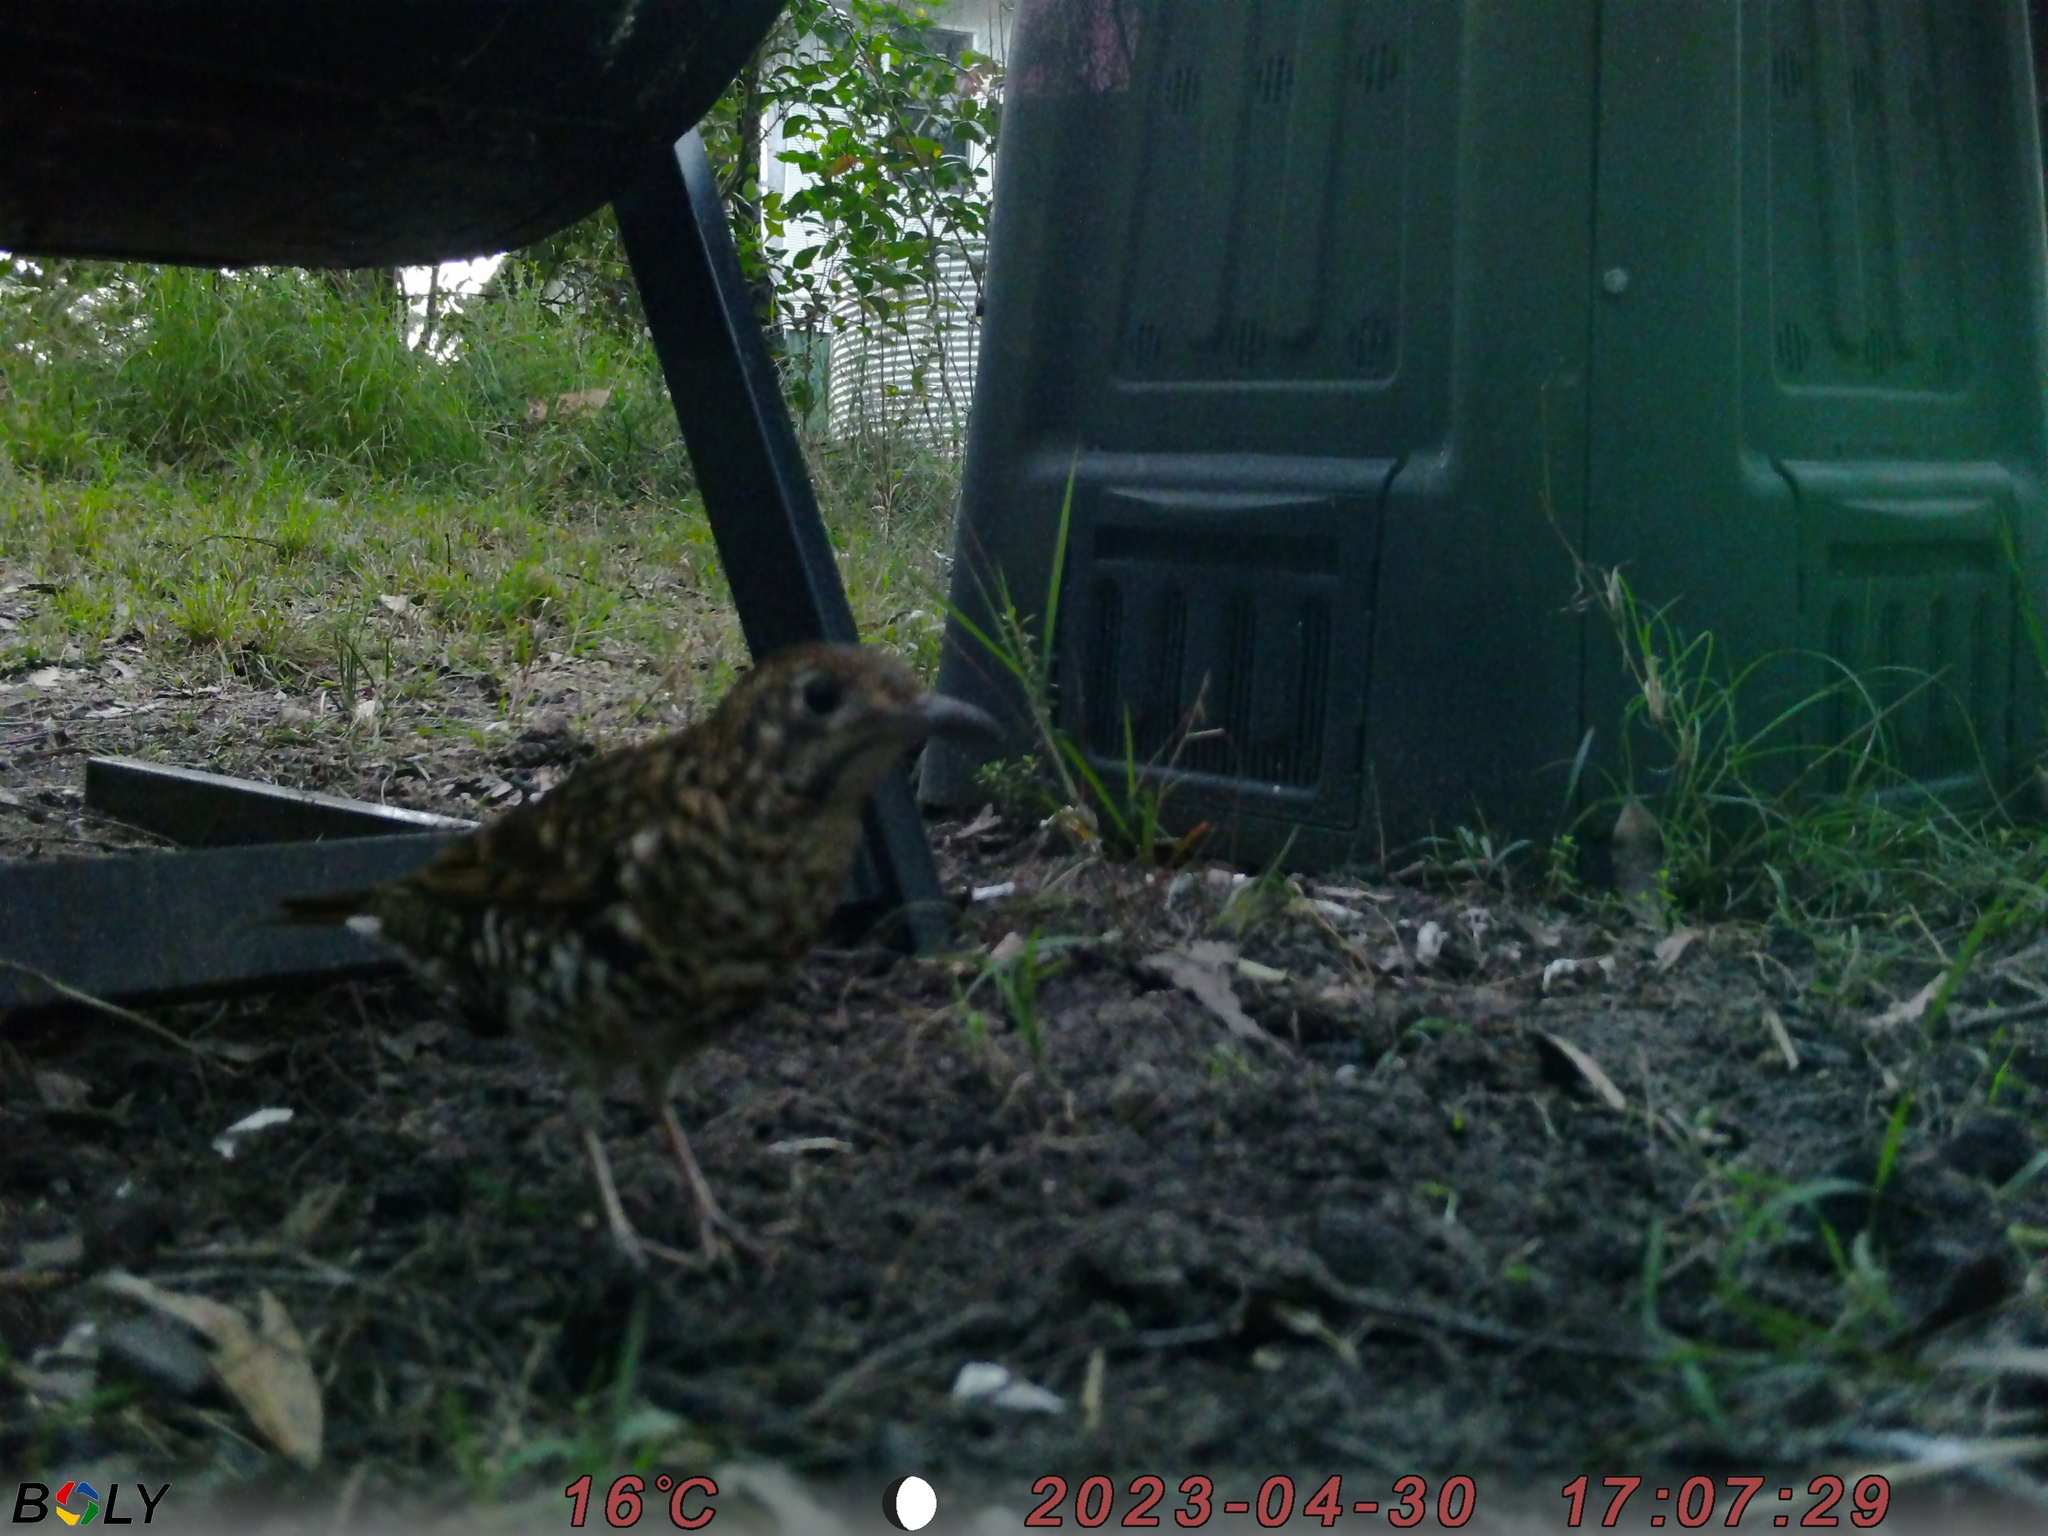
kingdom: Animalia
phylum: Chordata
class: Aves
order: Passeriformes
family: Turdidae
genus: Zoothera
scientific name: Zoothera lunulata
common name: Bassian thrush
